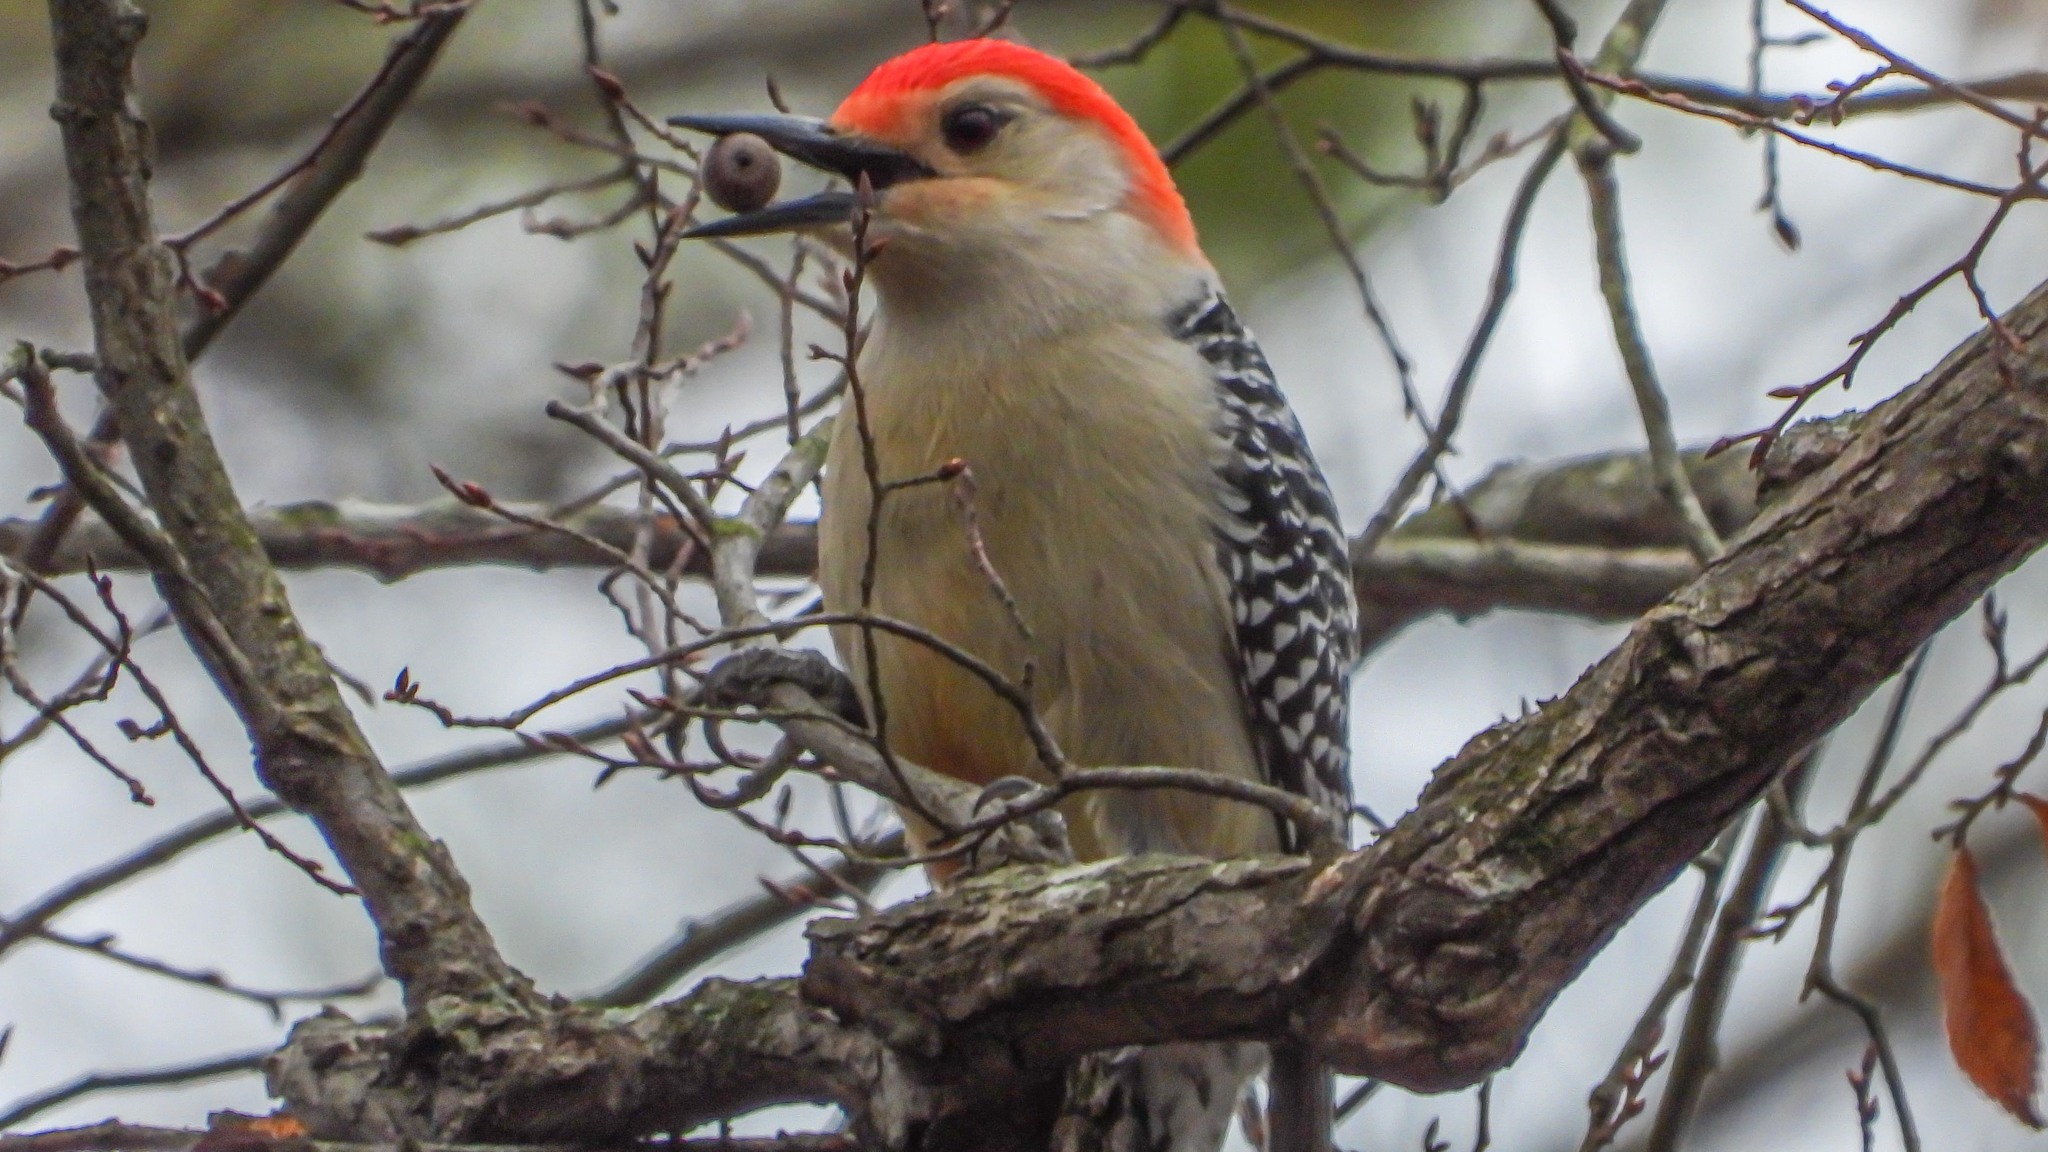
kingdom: Animalia
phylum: Chordata
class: Aves
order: Piciformes
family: Picidae
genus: Melanerpes
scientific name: Melanerpes carolinus
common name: Red-bellied woodpecker
